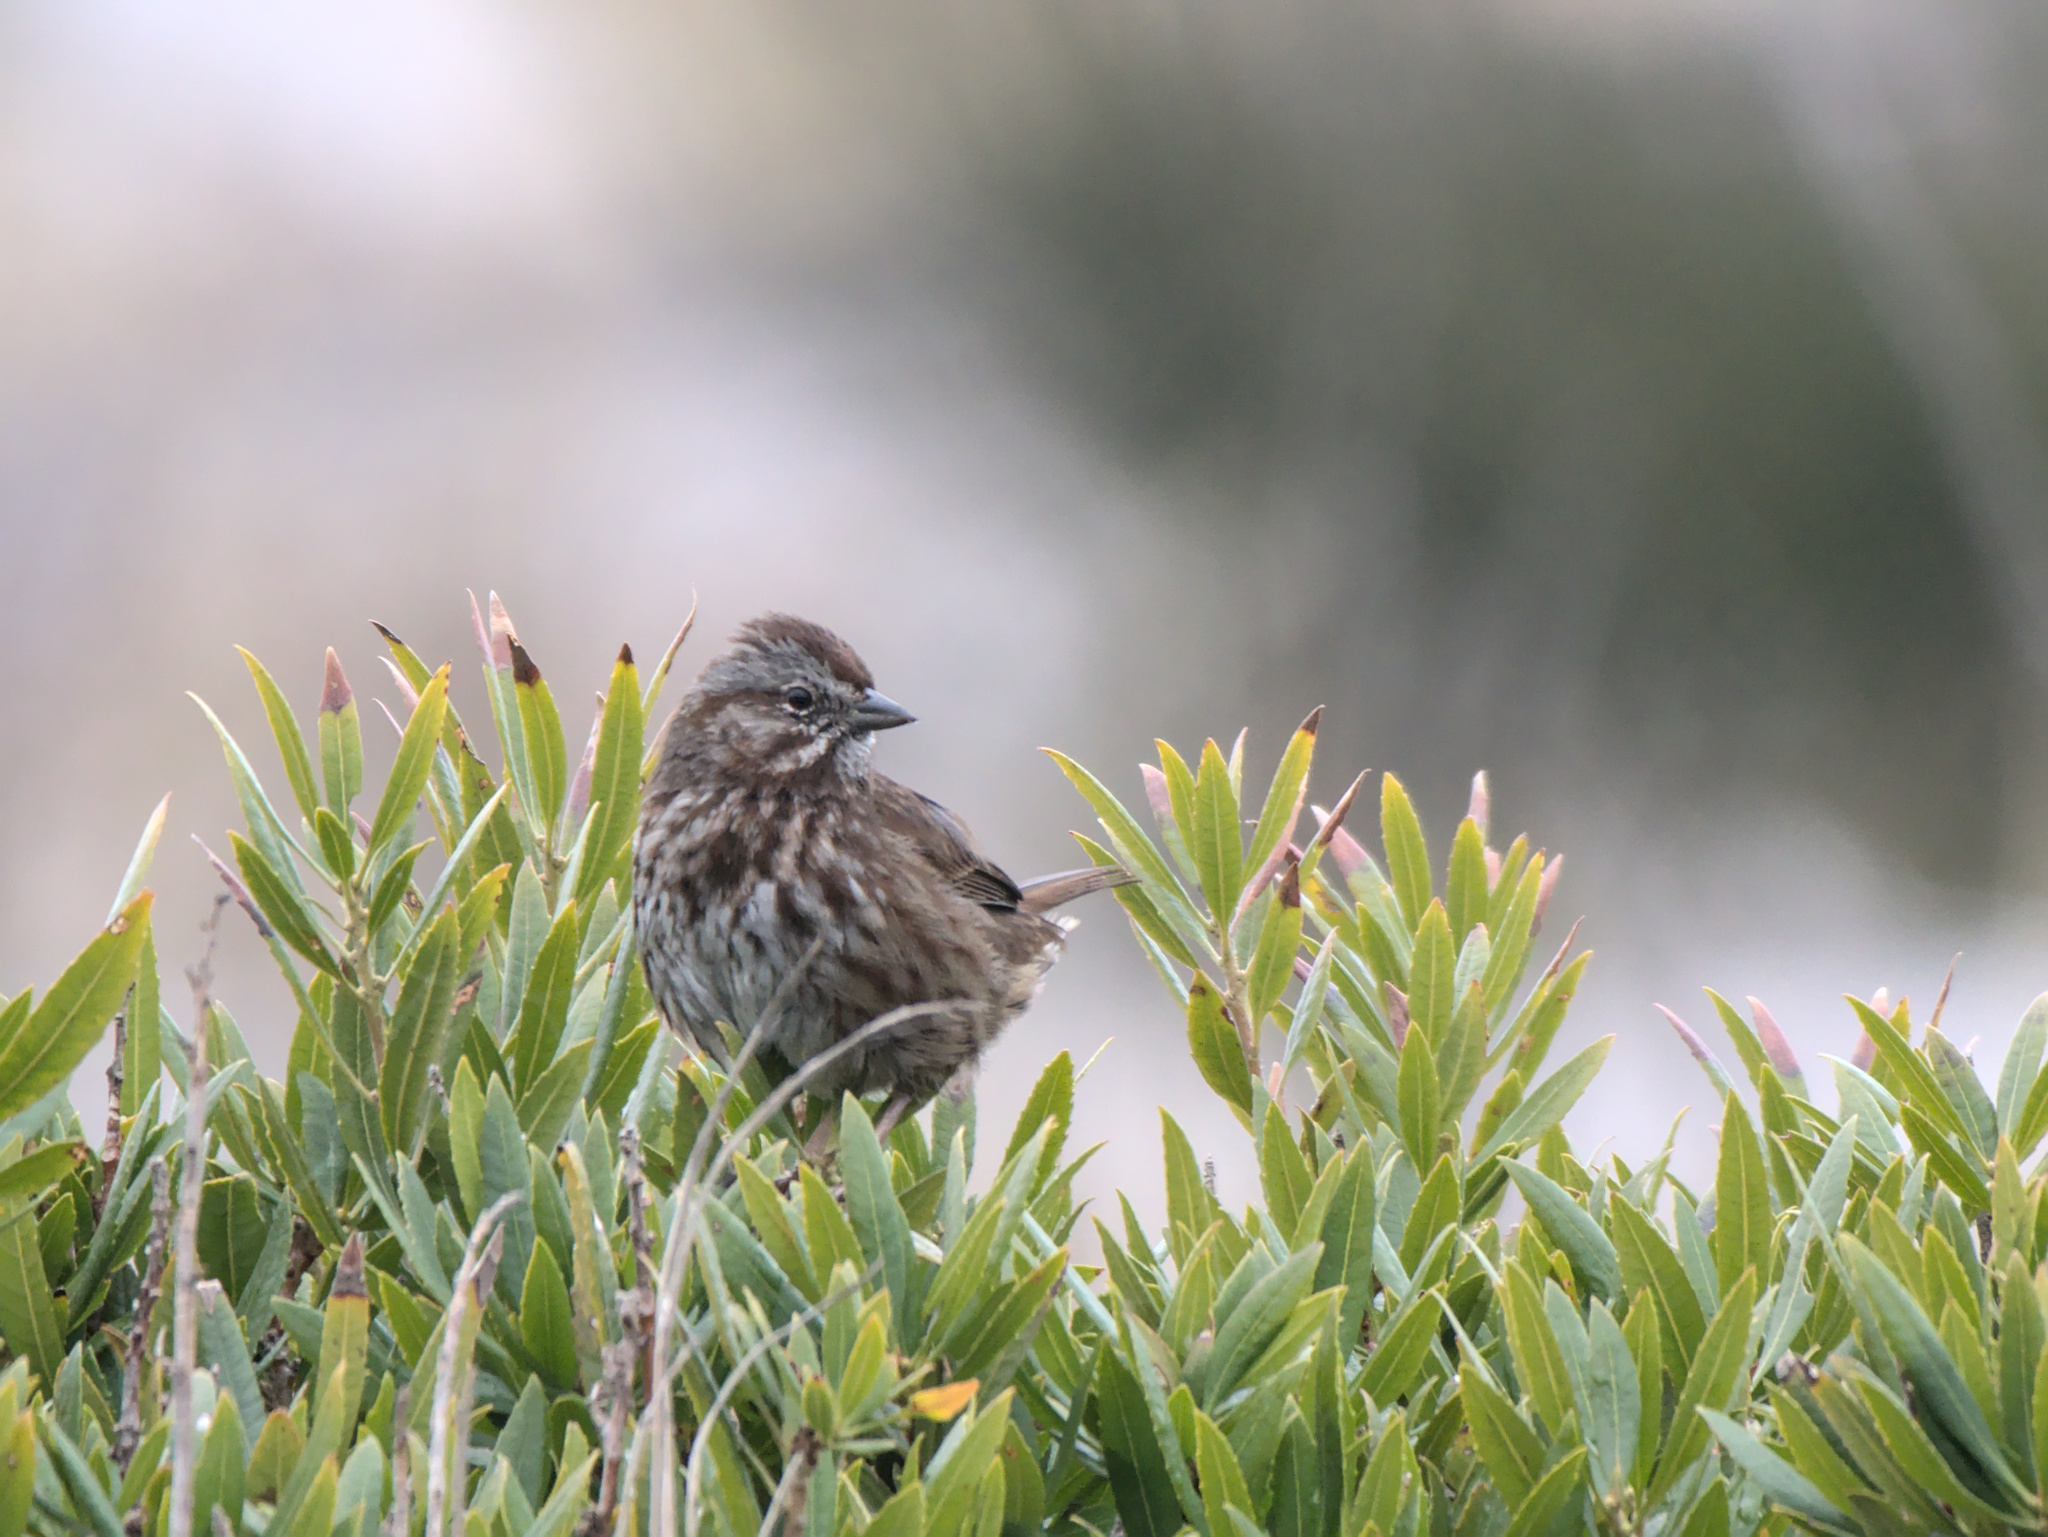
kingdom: Animalia
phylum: Chordata
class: Aves
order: Passeriformes
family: Passerellidae
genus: Melospiza
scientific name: Melospiza melodia
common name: Song sparrow
